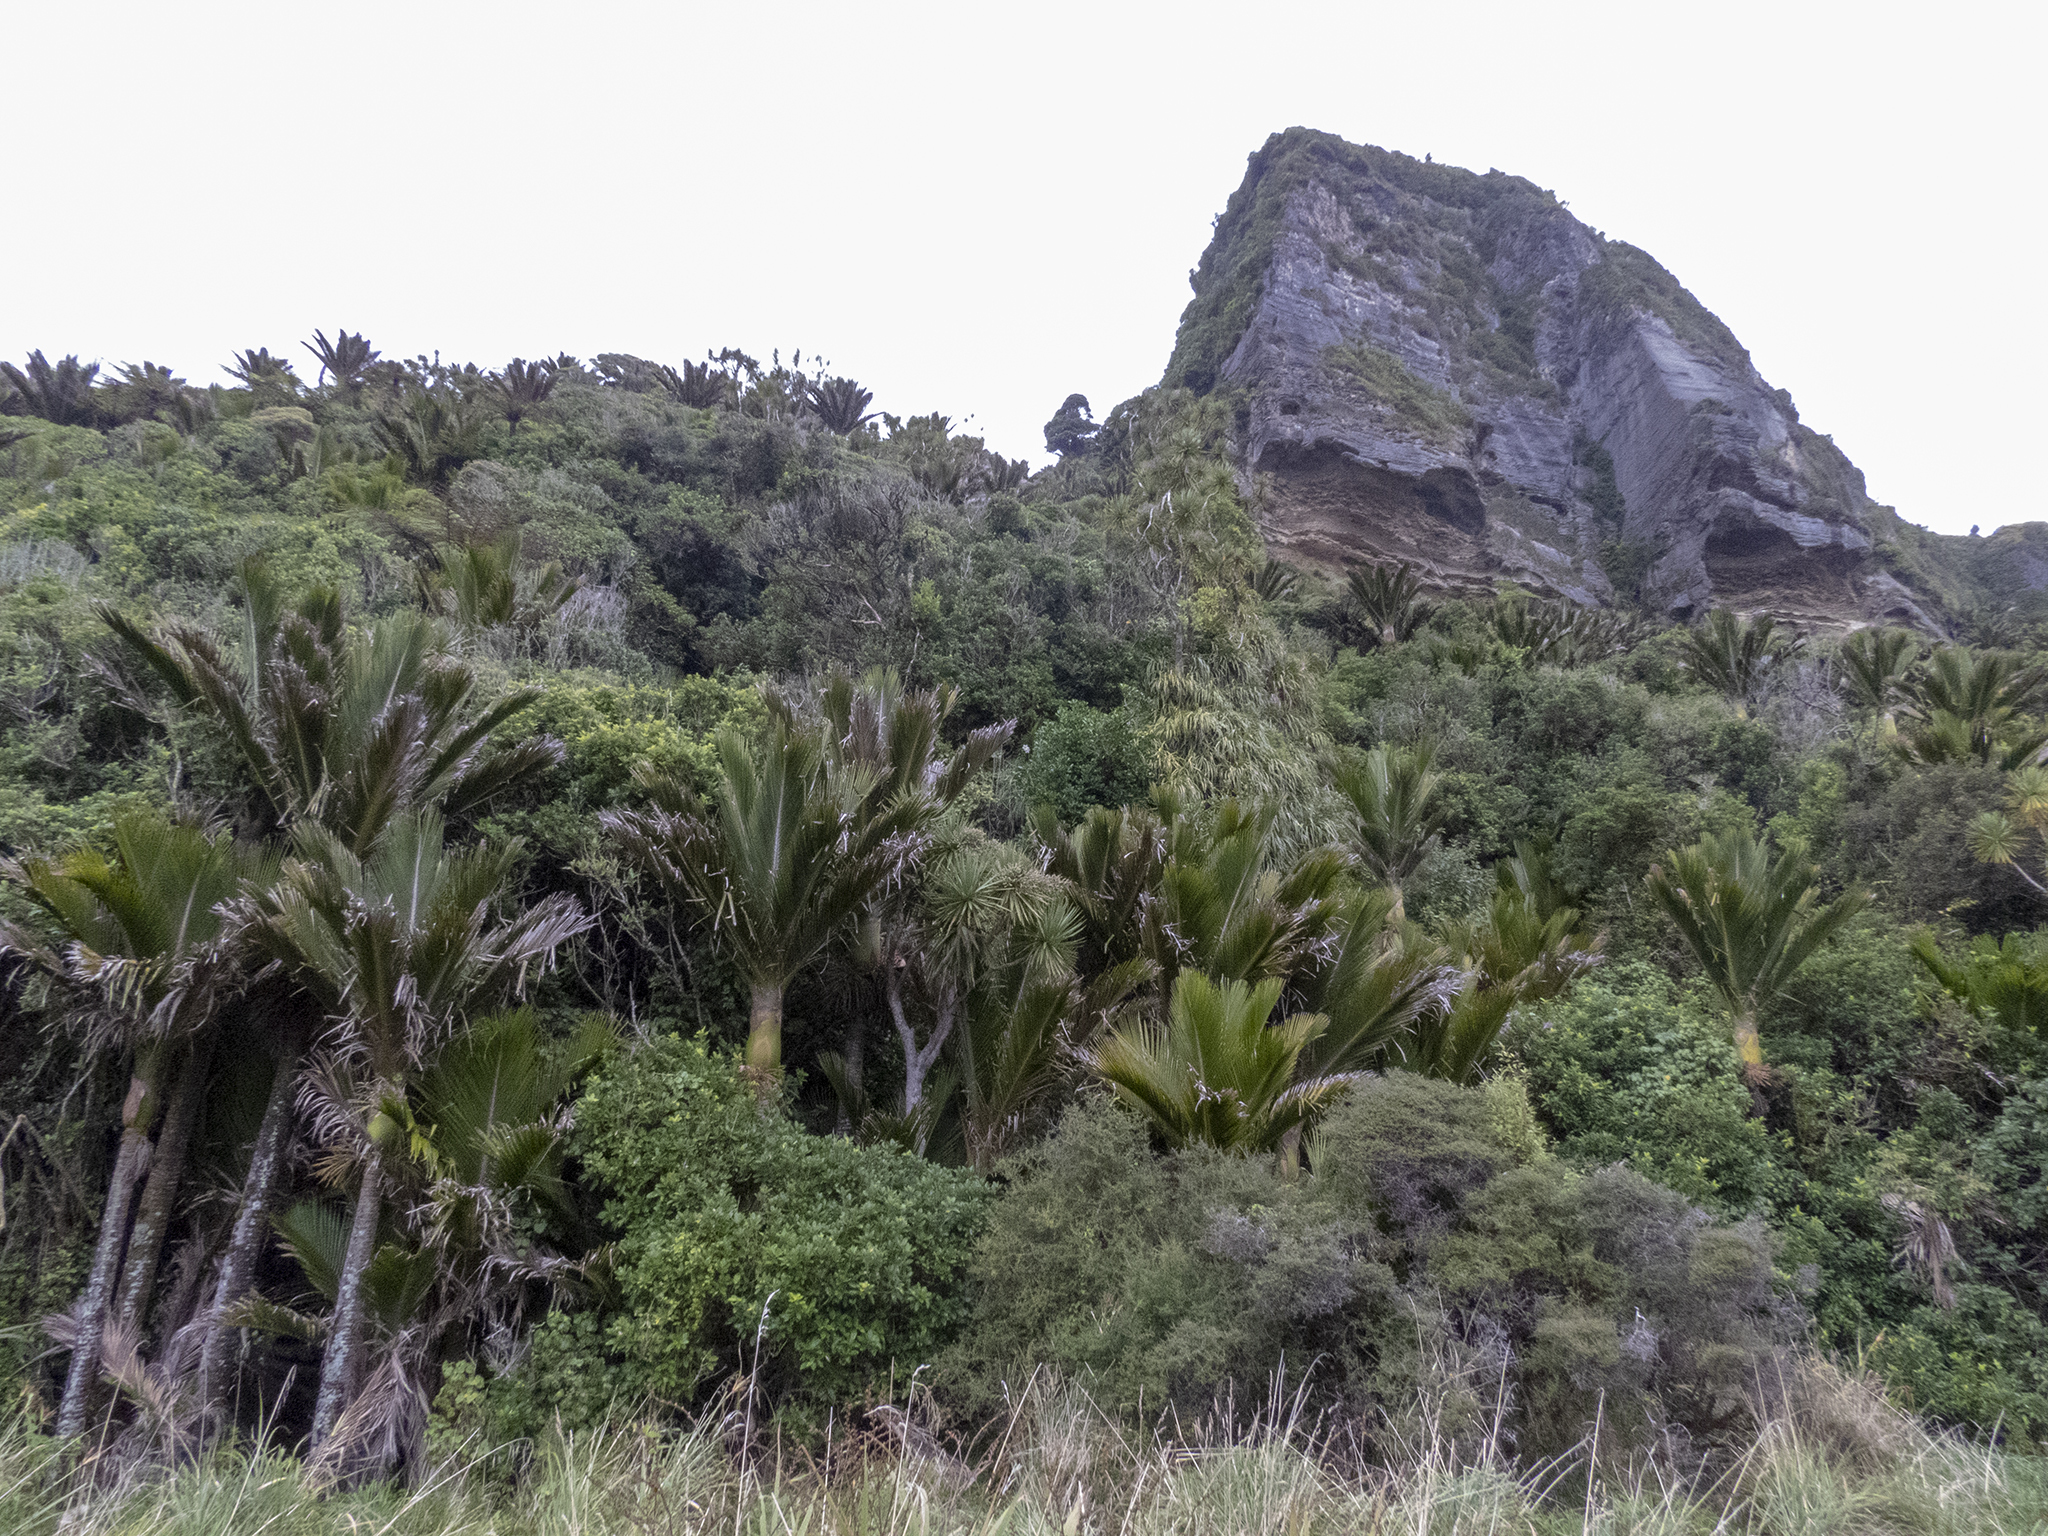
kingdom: Plantae
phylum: Tracheophyta
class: Liliopsida
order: Liliales
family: Liliaceae
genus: Lilium
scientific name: Lilium formosanum
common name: Formosa lily
